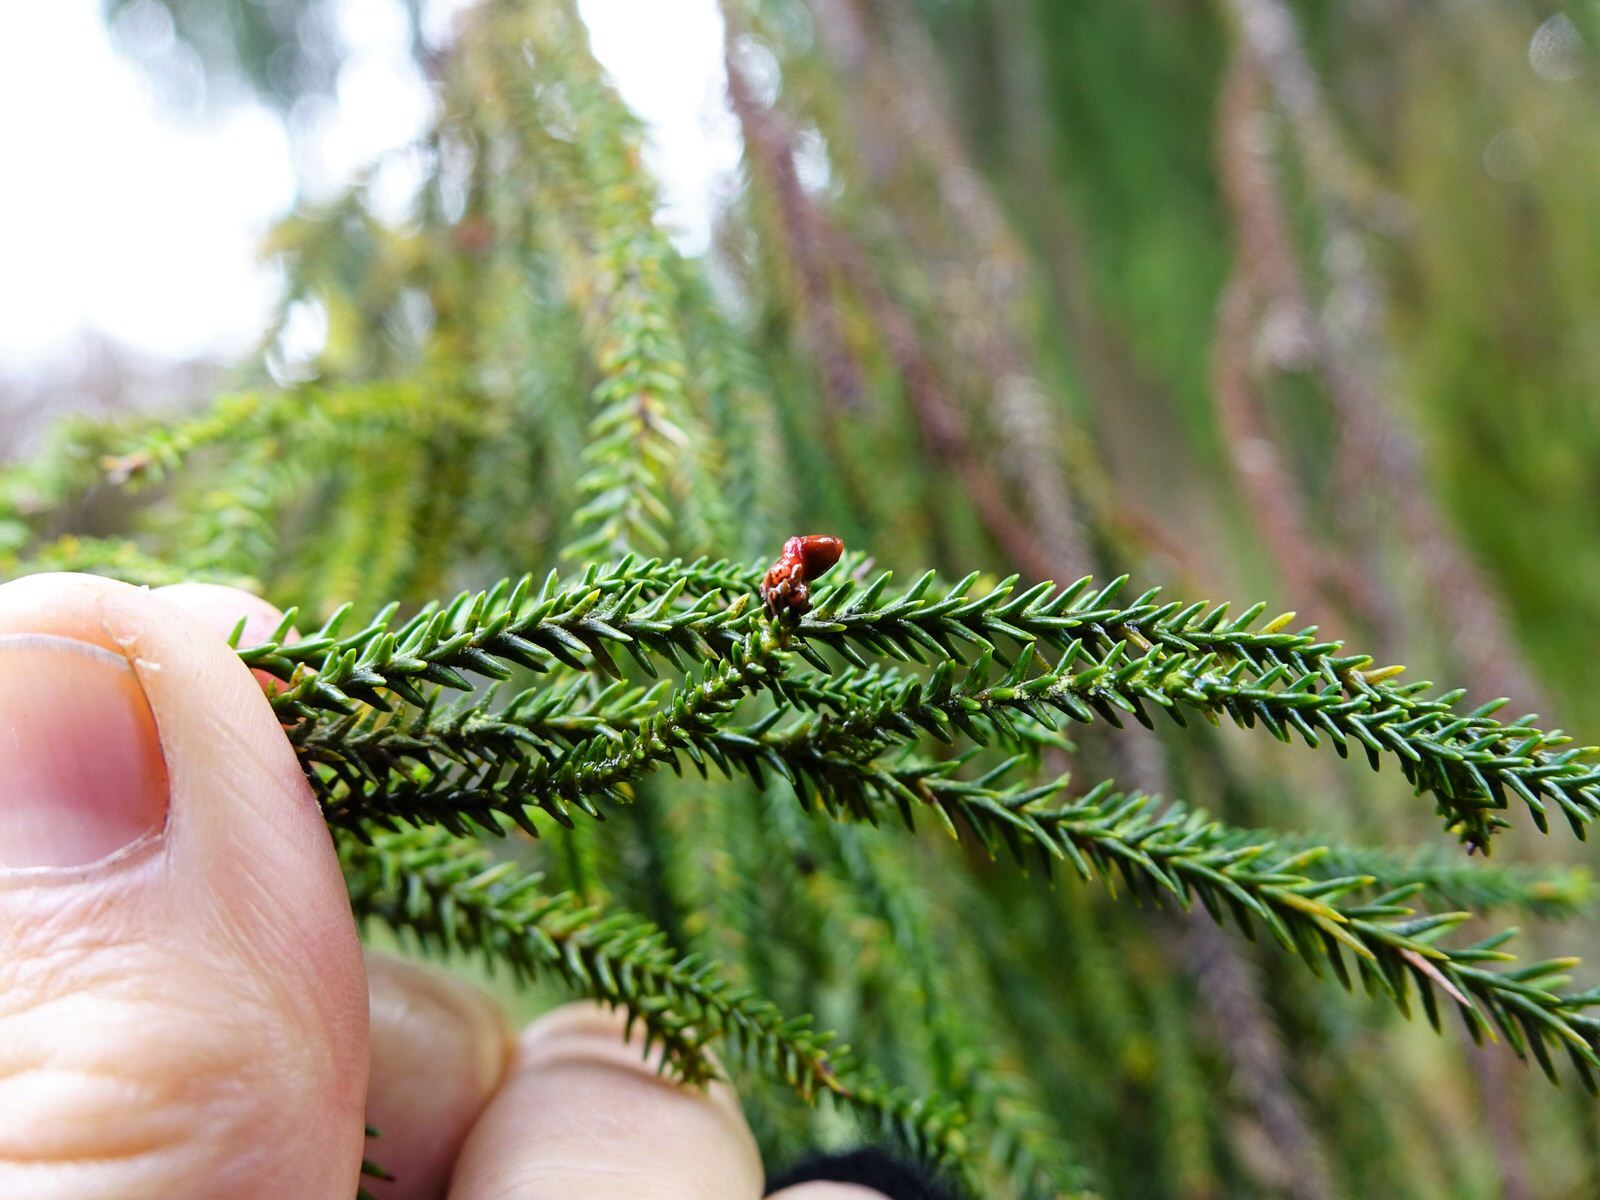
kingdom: Plantae
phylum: Tracheophyta
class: Pinopsida
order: Pinales
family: Podocarpaceae
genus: Dacrydium
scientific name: Dacrydium cupressinum
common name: Red pine
